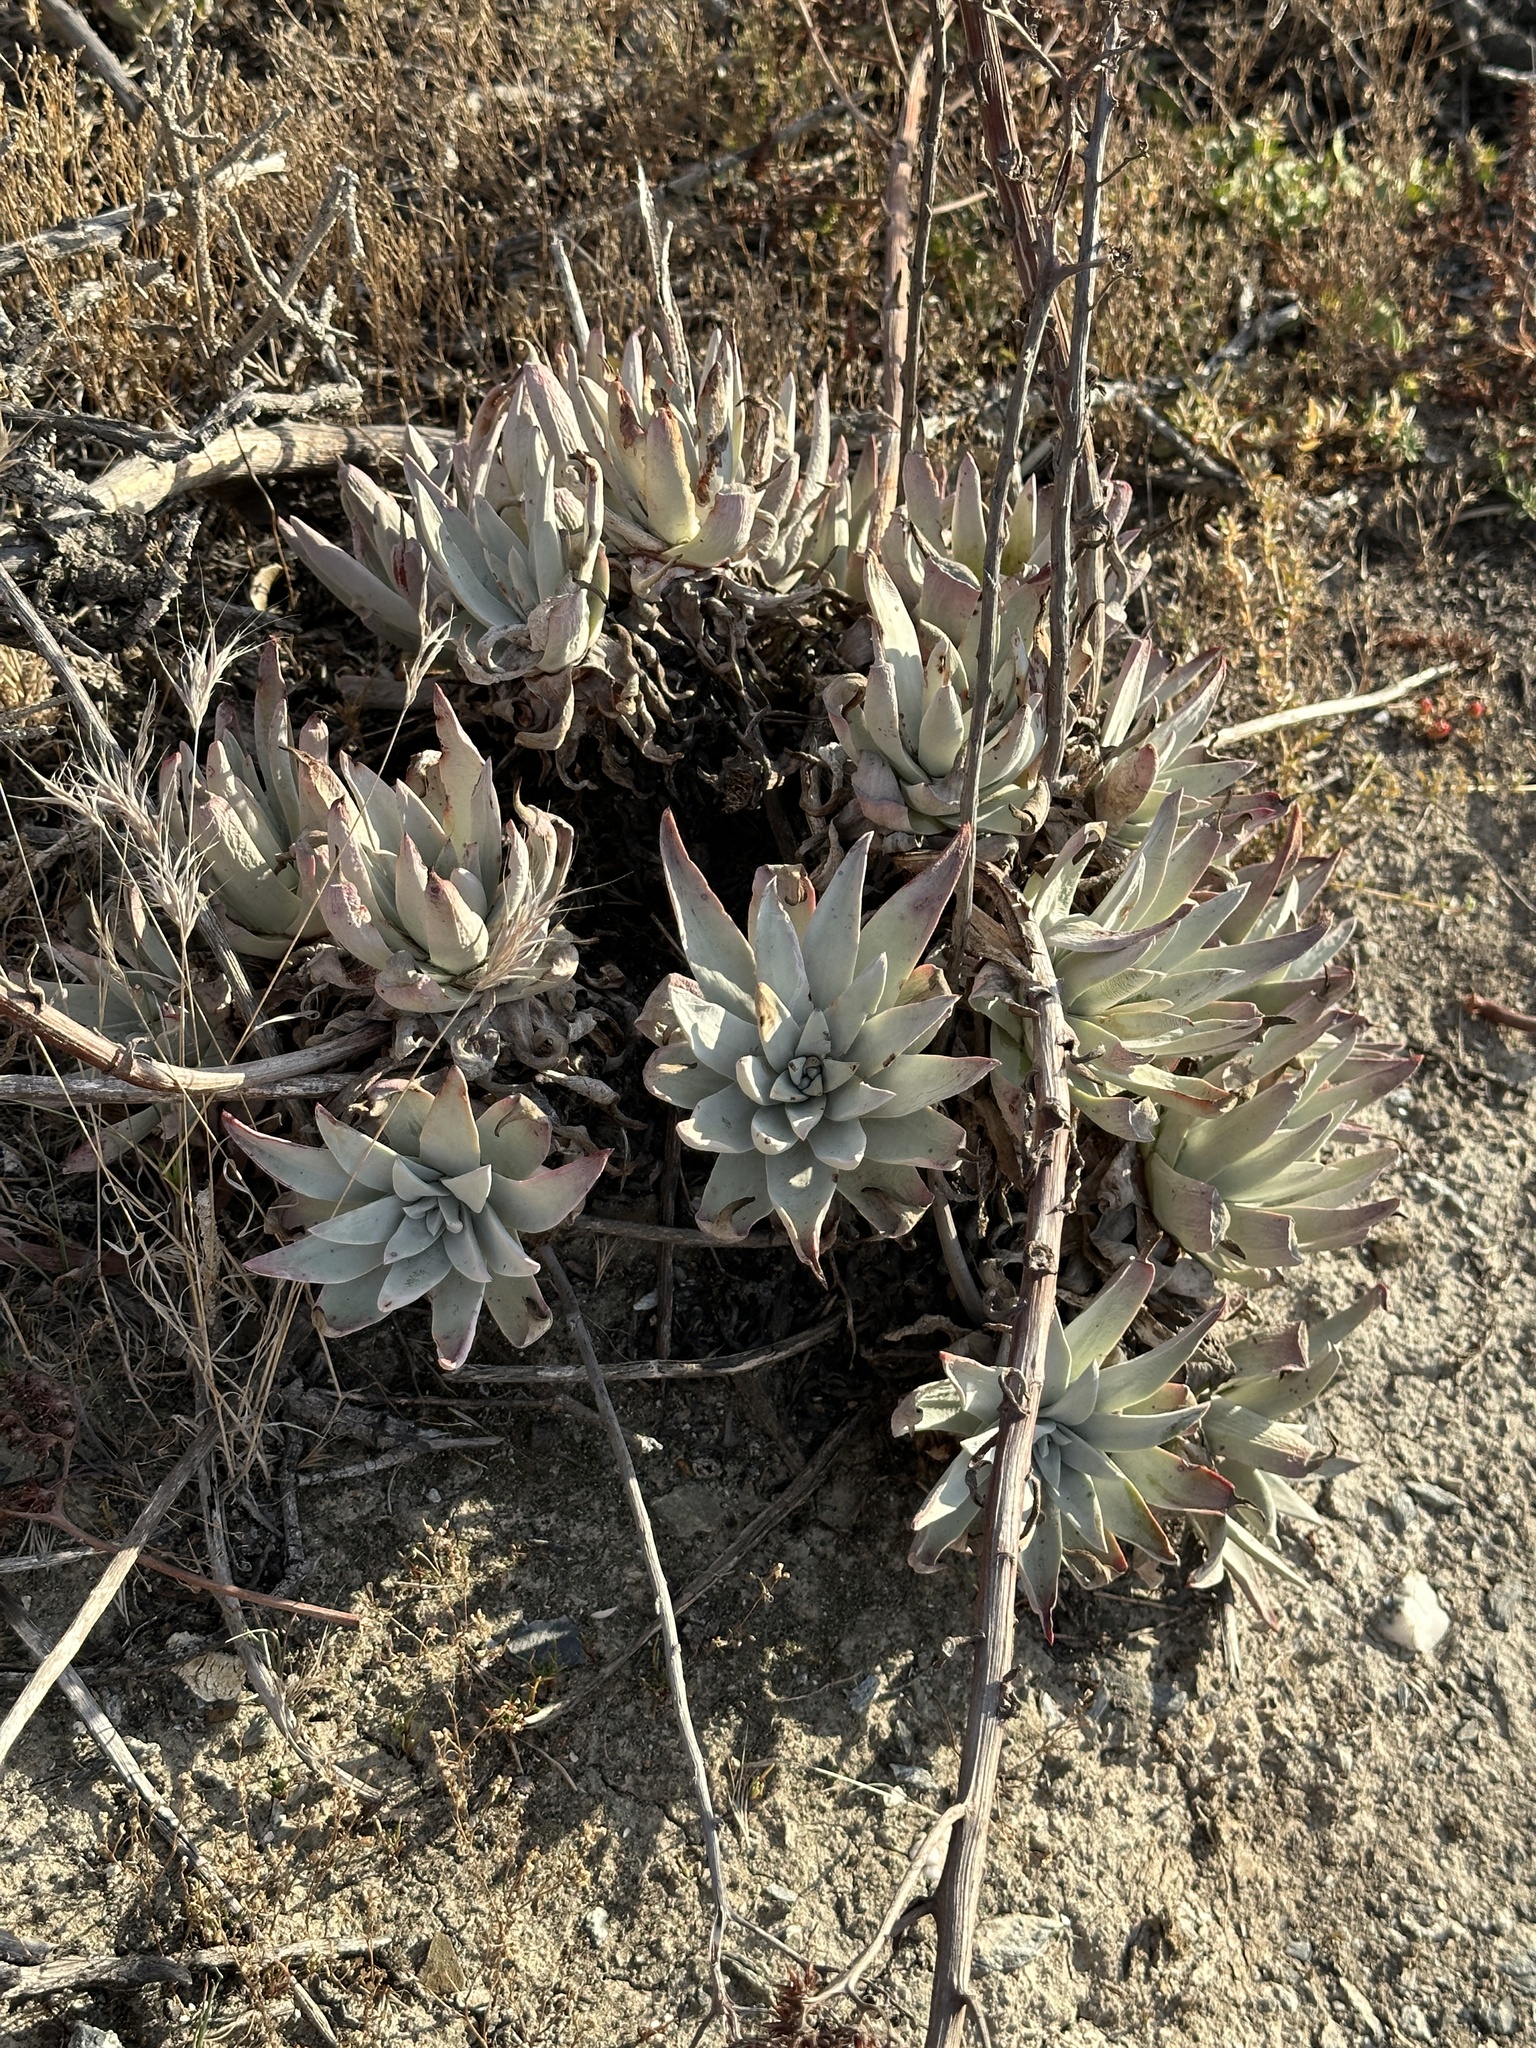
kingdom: Plantae
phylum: Tracheophyta
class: Magnoliopsida
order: Saxifragales
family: Crassulaceae
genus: Dudleya
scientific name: Dudleya virens
